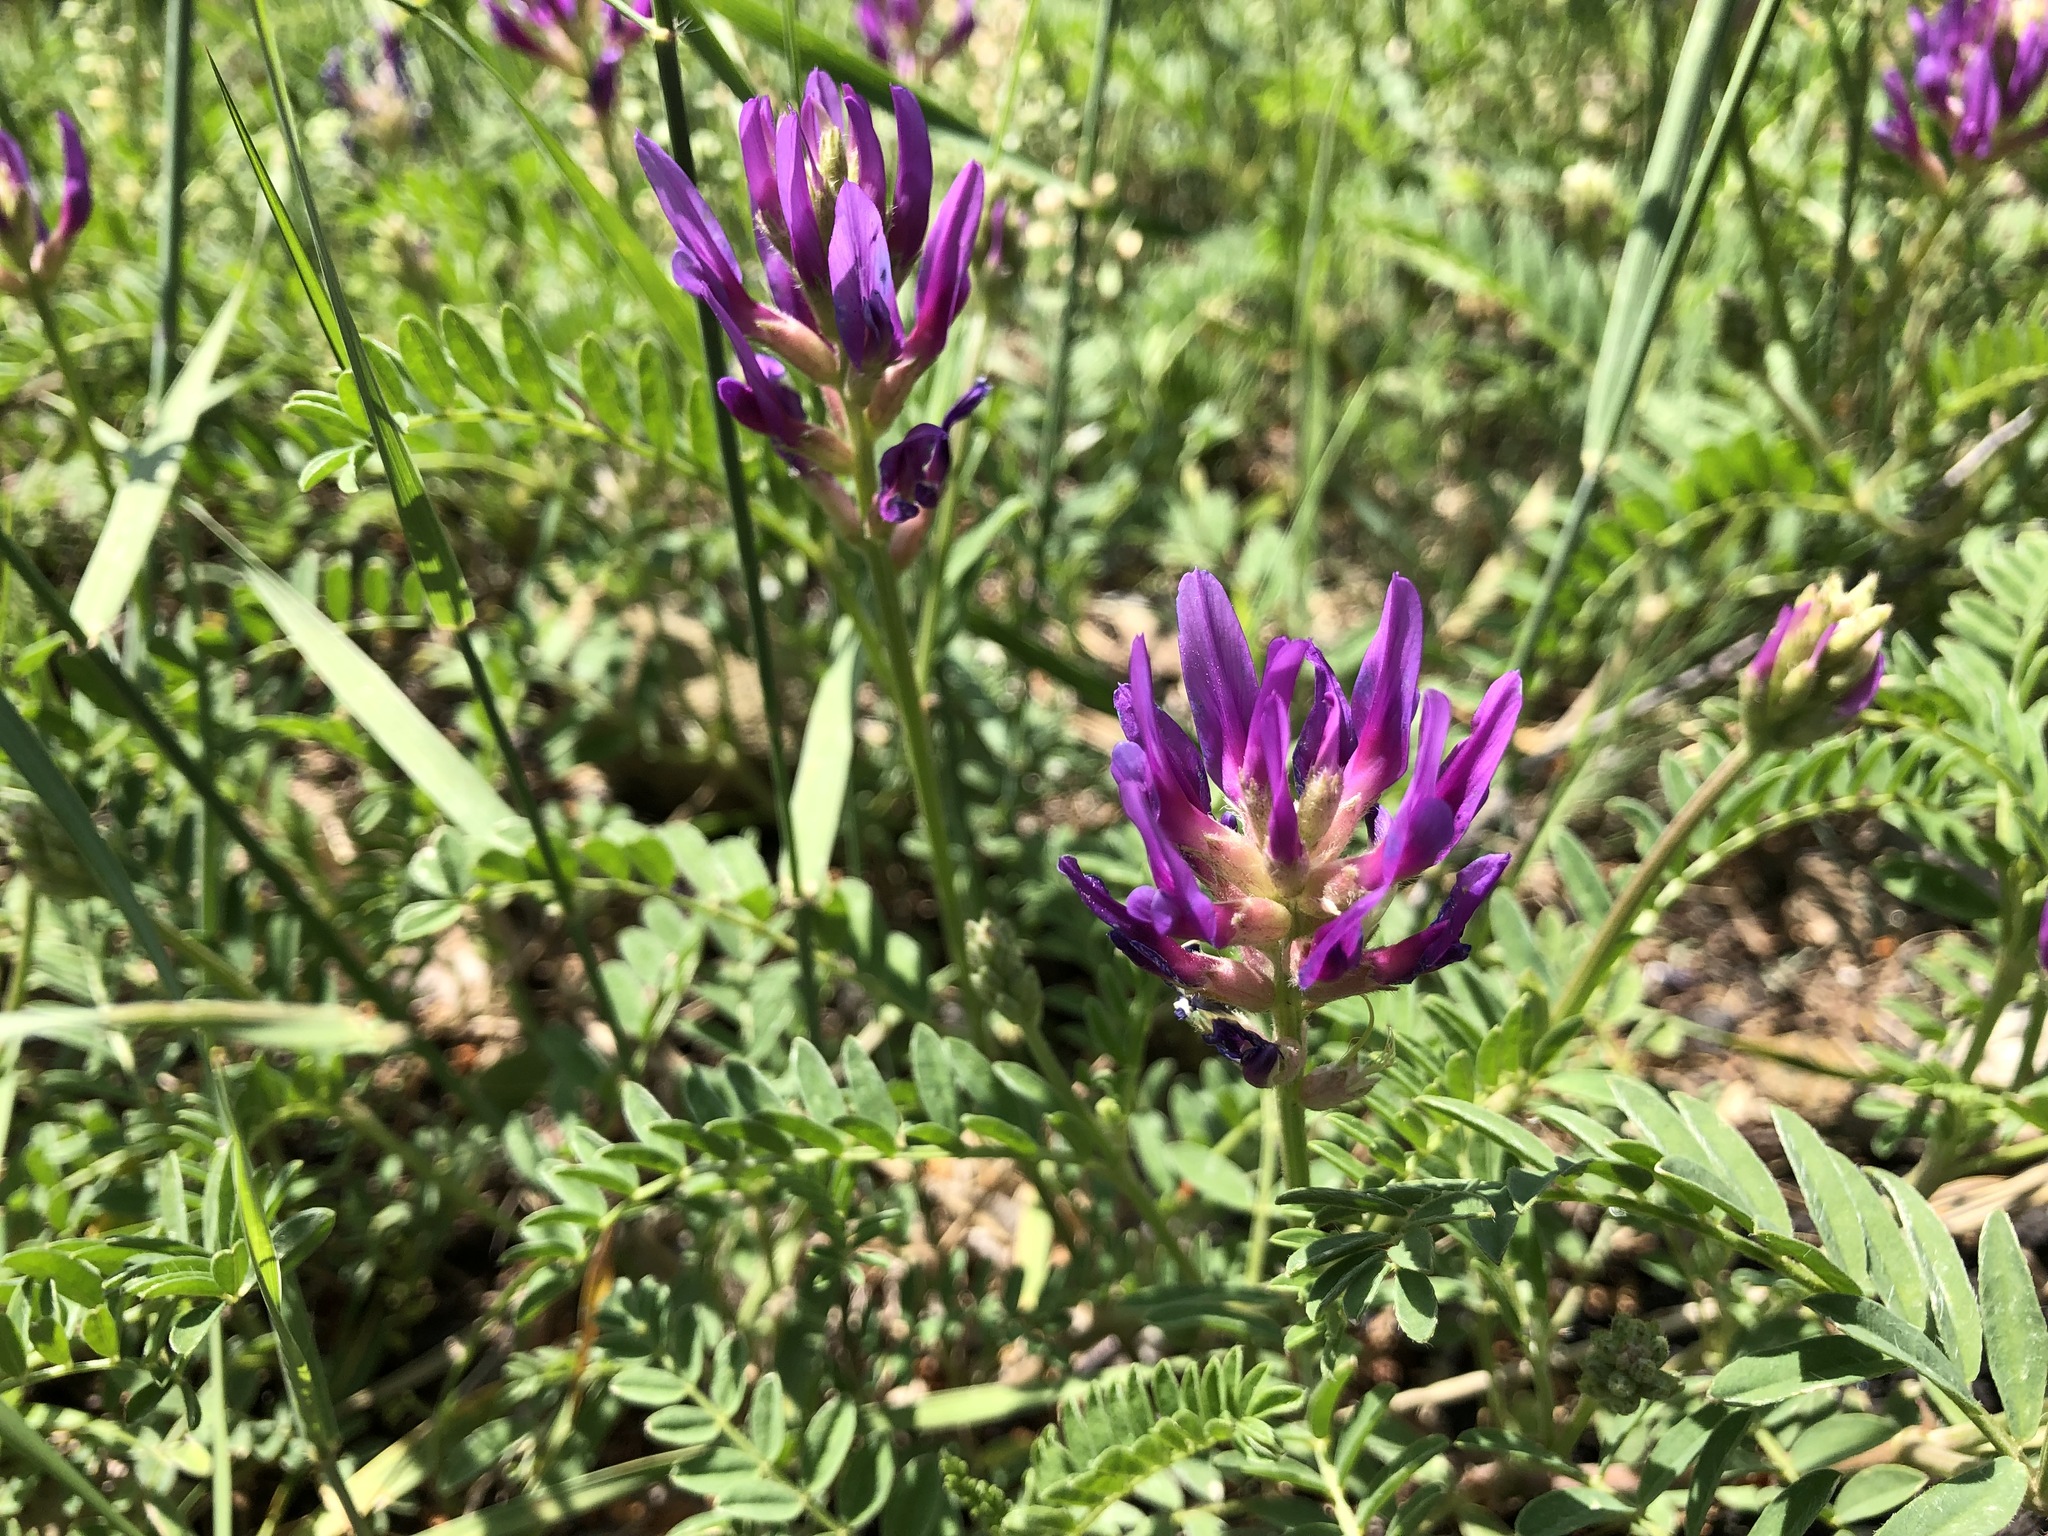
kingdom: Plantae
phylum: Tracheophyta
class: Magnoliopsida
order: Fabales
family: Fabaceae
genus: Astragalus
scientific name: Astragalus onobrychis
